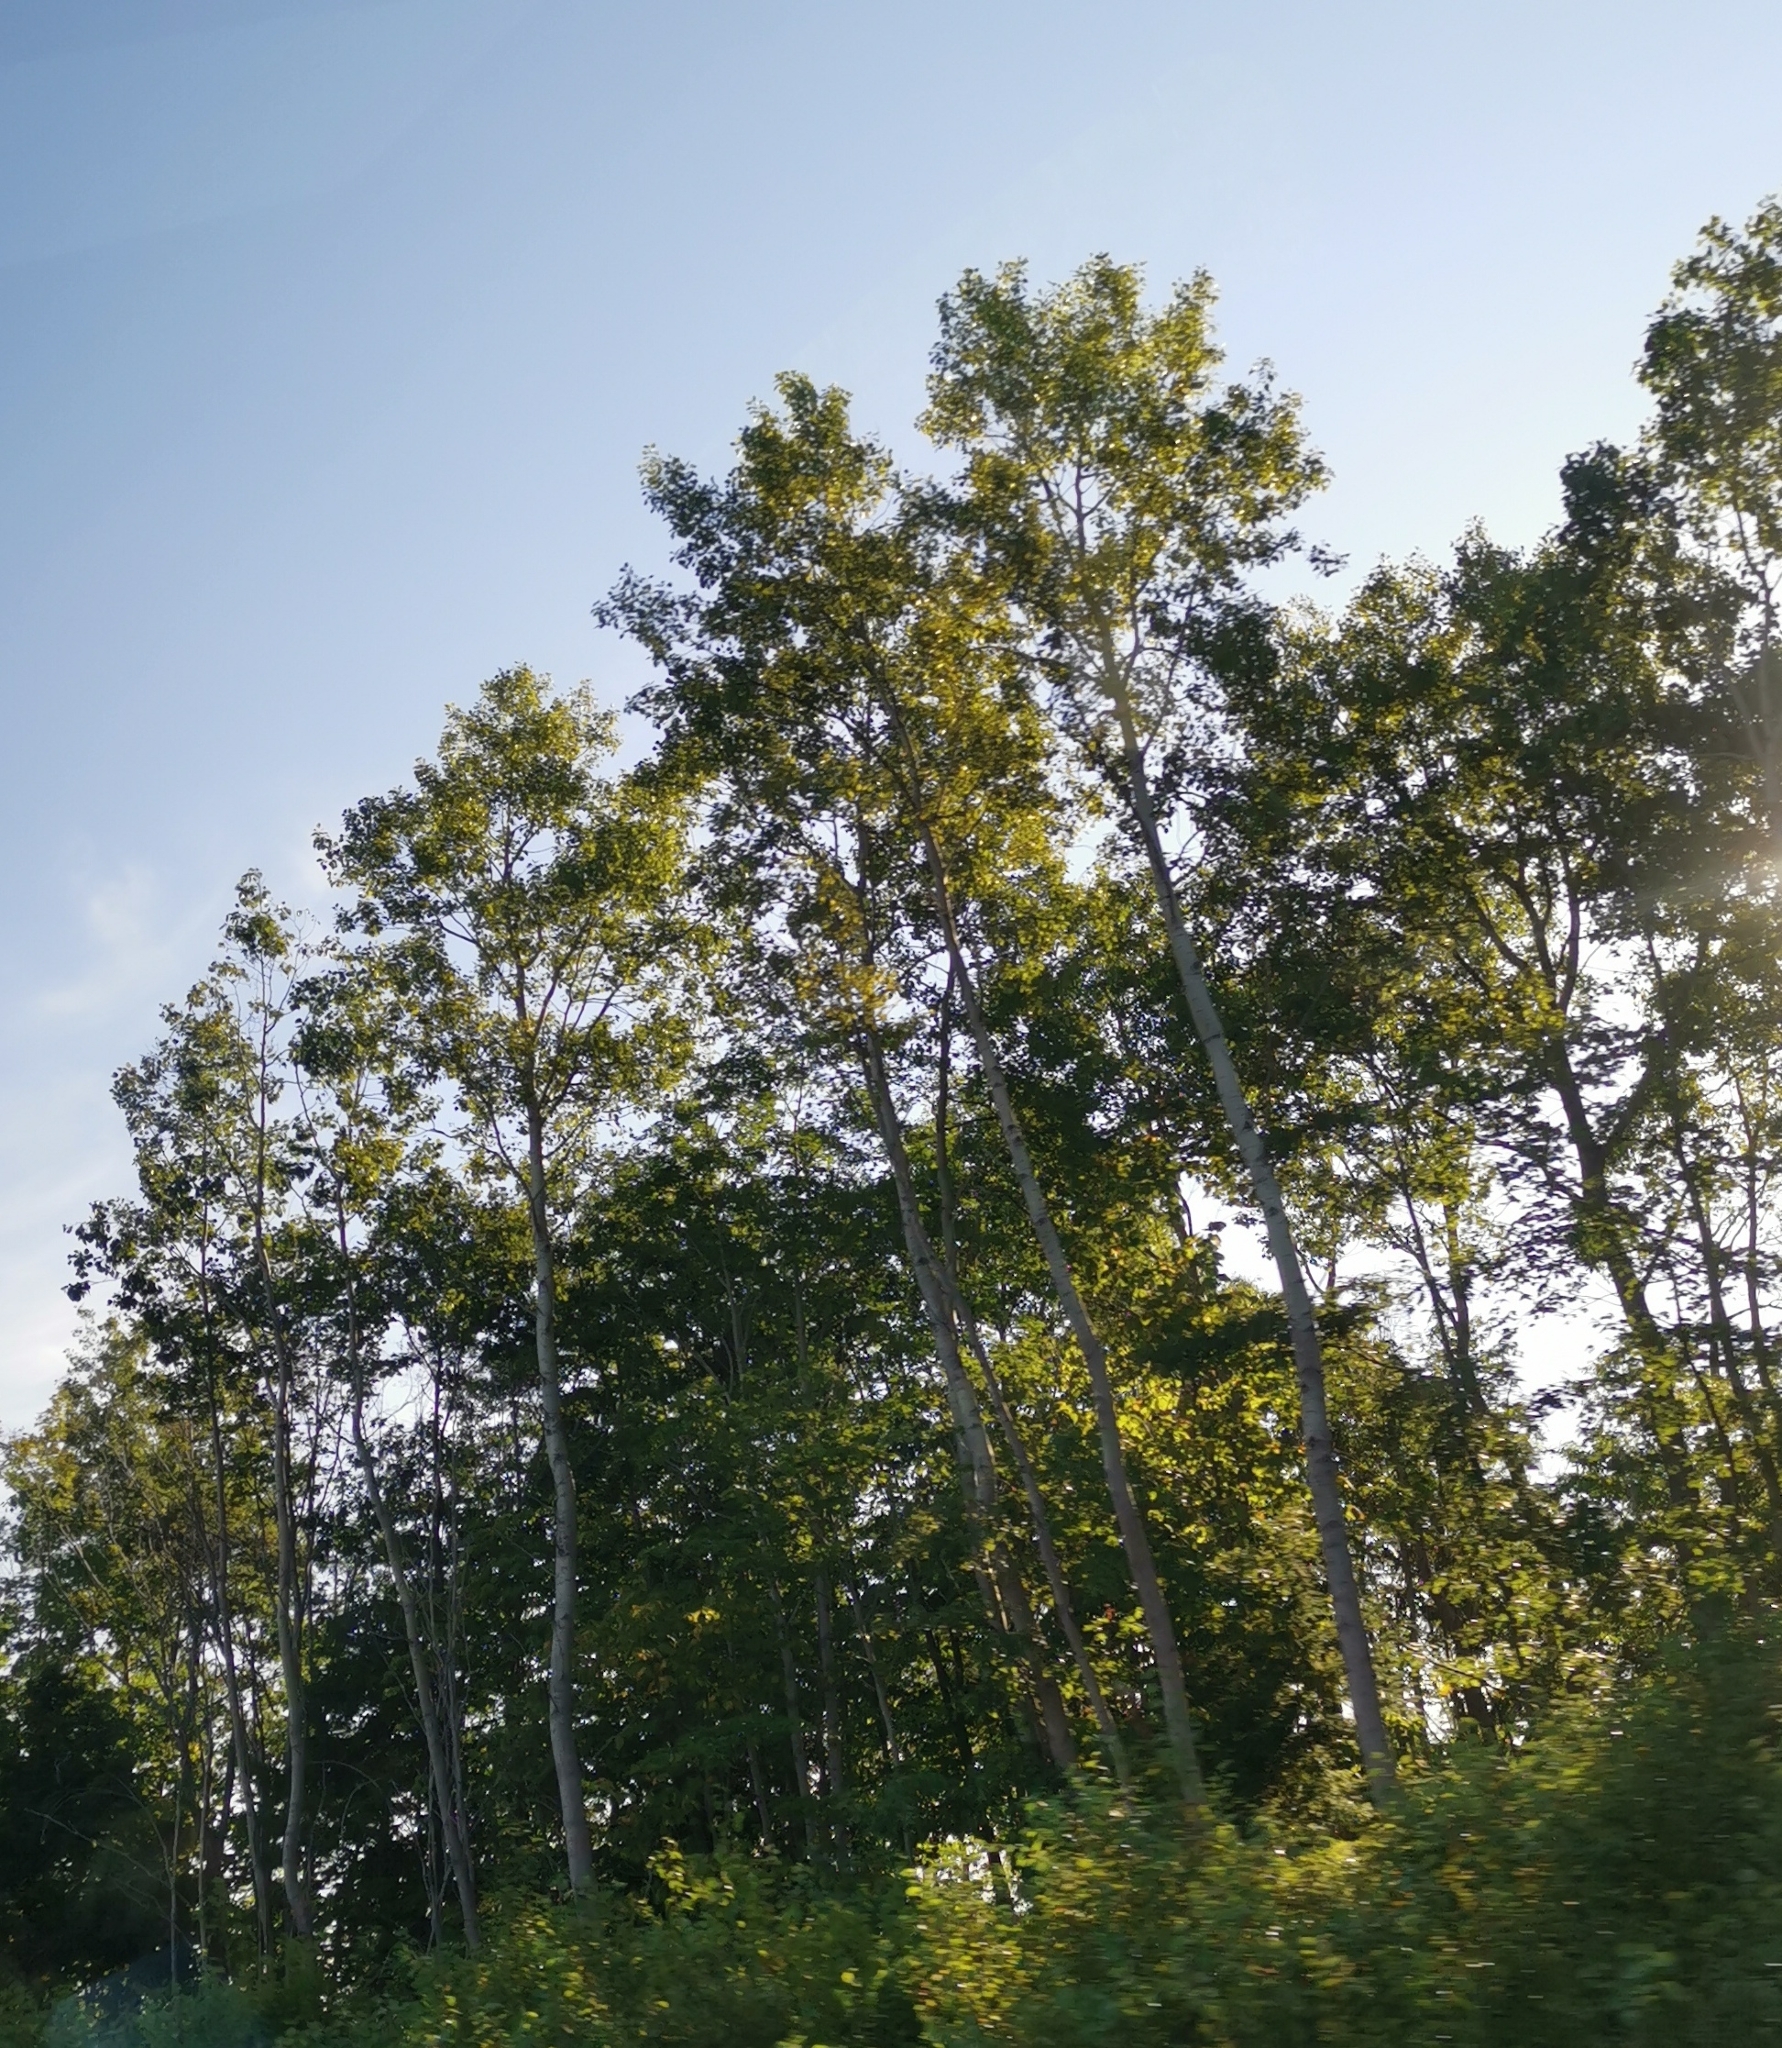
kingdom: Plantae
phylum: Tracheophyta
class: Magnoliopsida
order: Malpighiales
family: Salicaceae
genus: Populus
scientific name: Populus tremuloides
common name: Quaking aspen
